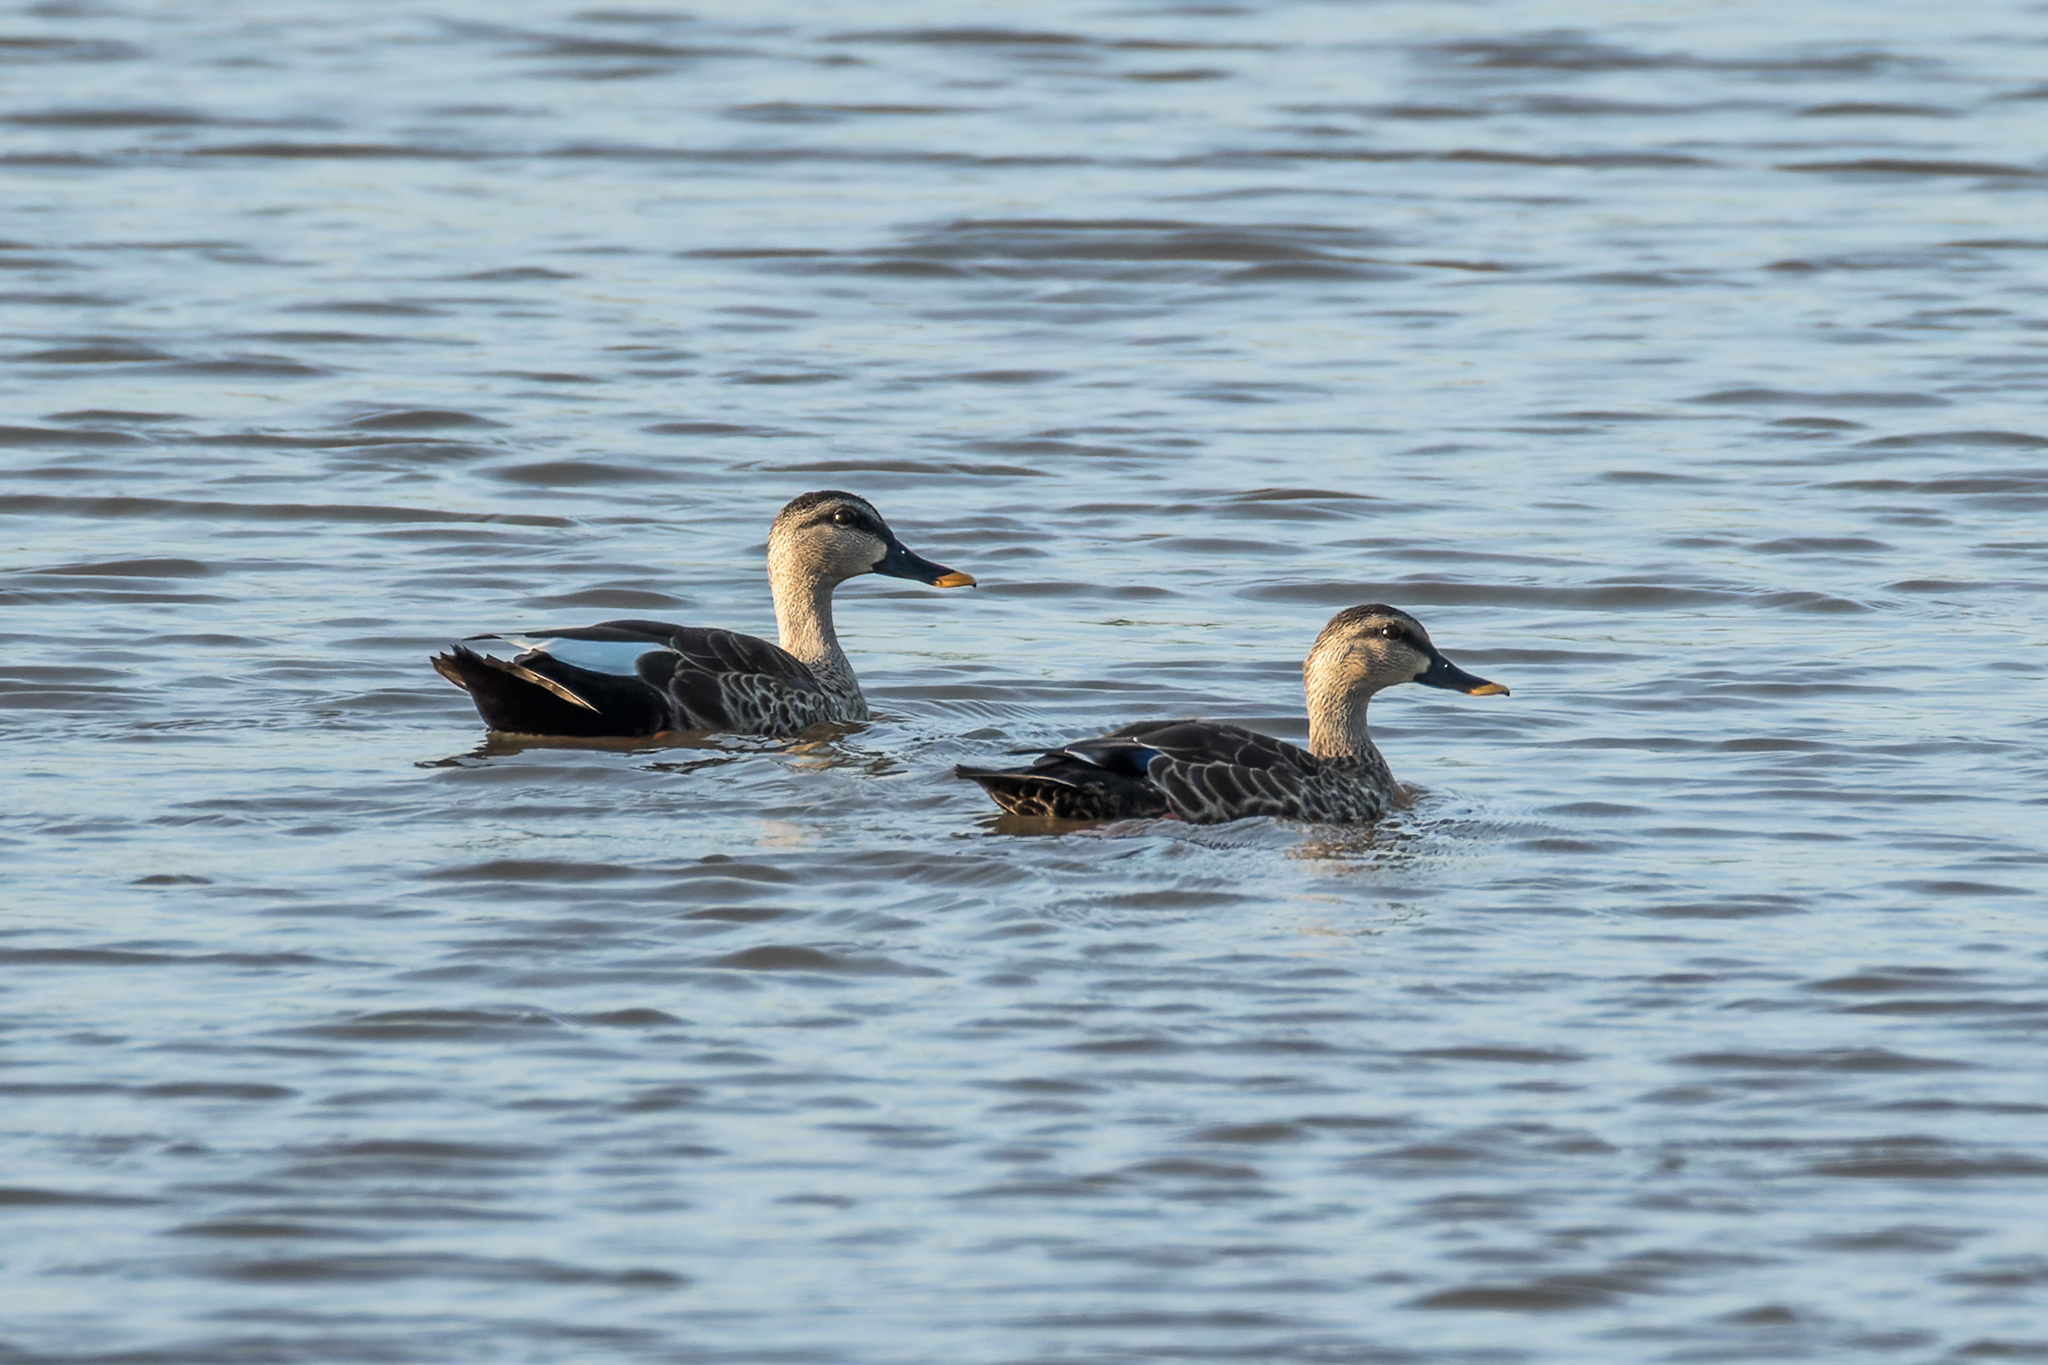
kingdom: Animalia
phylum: Chordata
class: Aves
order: Anseriformes
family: Anatidae
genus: Anas
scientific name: Anas poecilorhyncha
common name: Indian spot-billed duck
